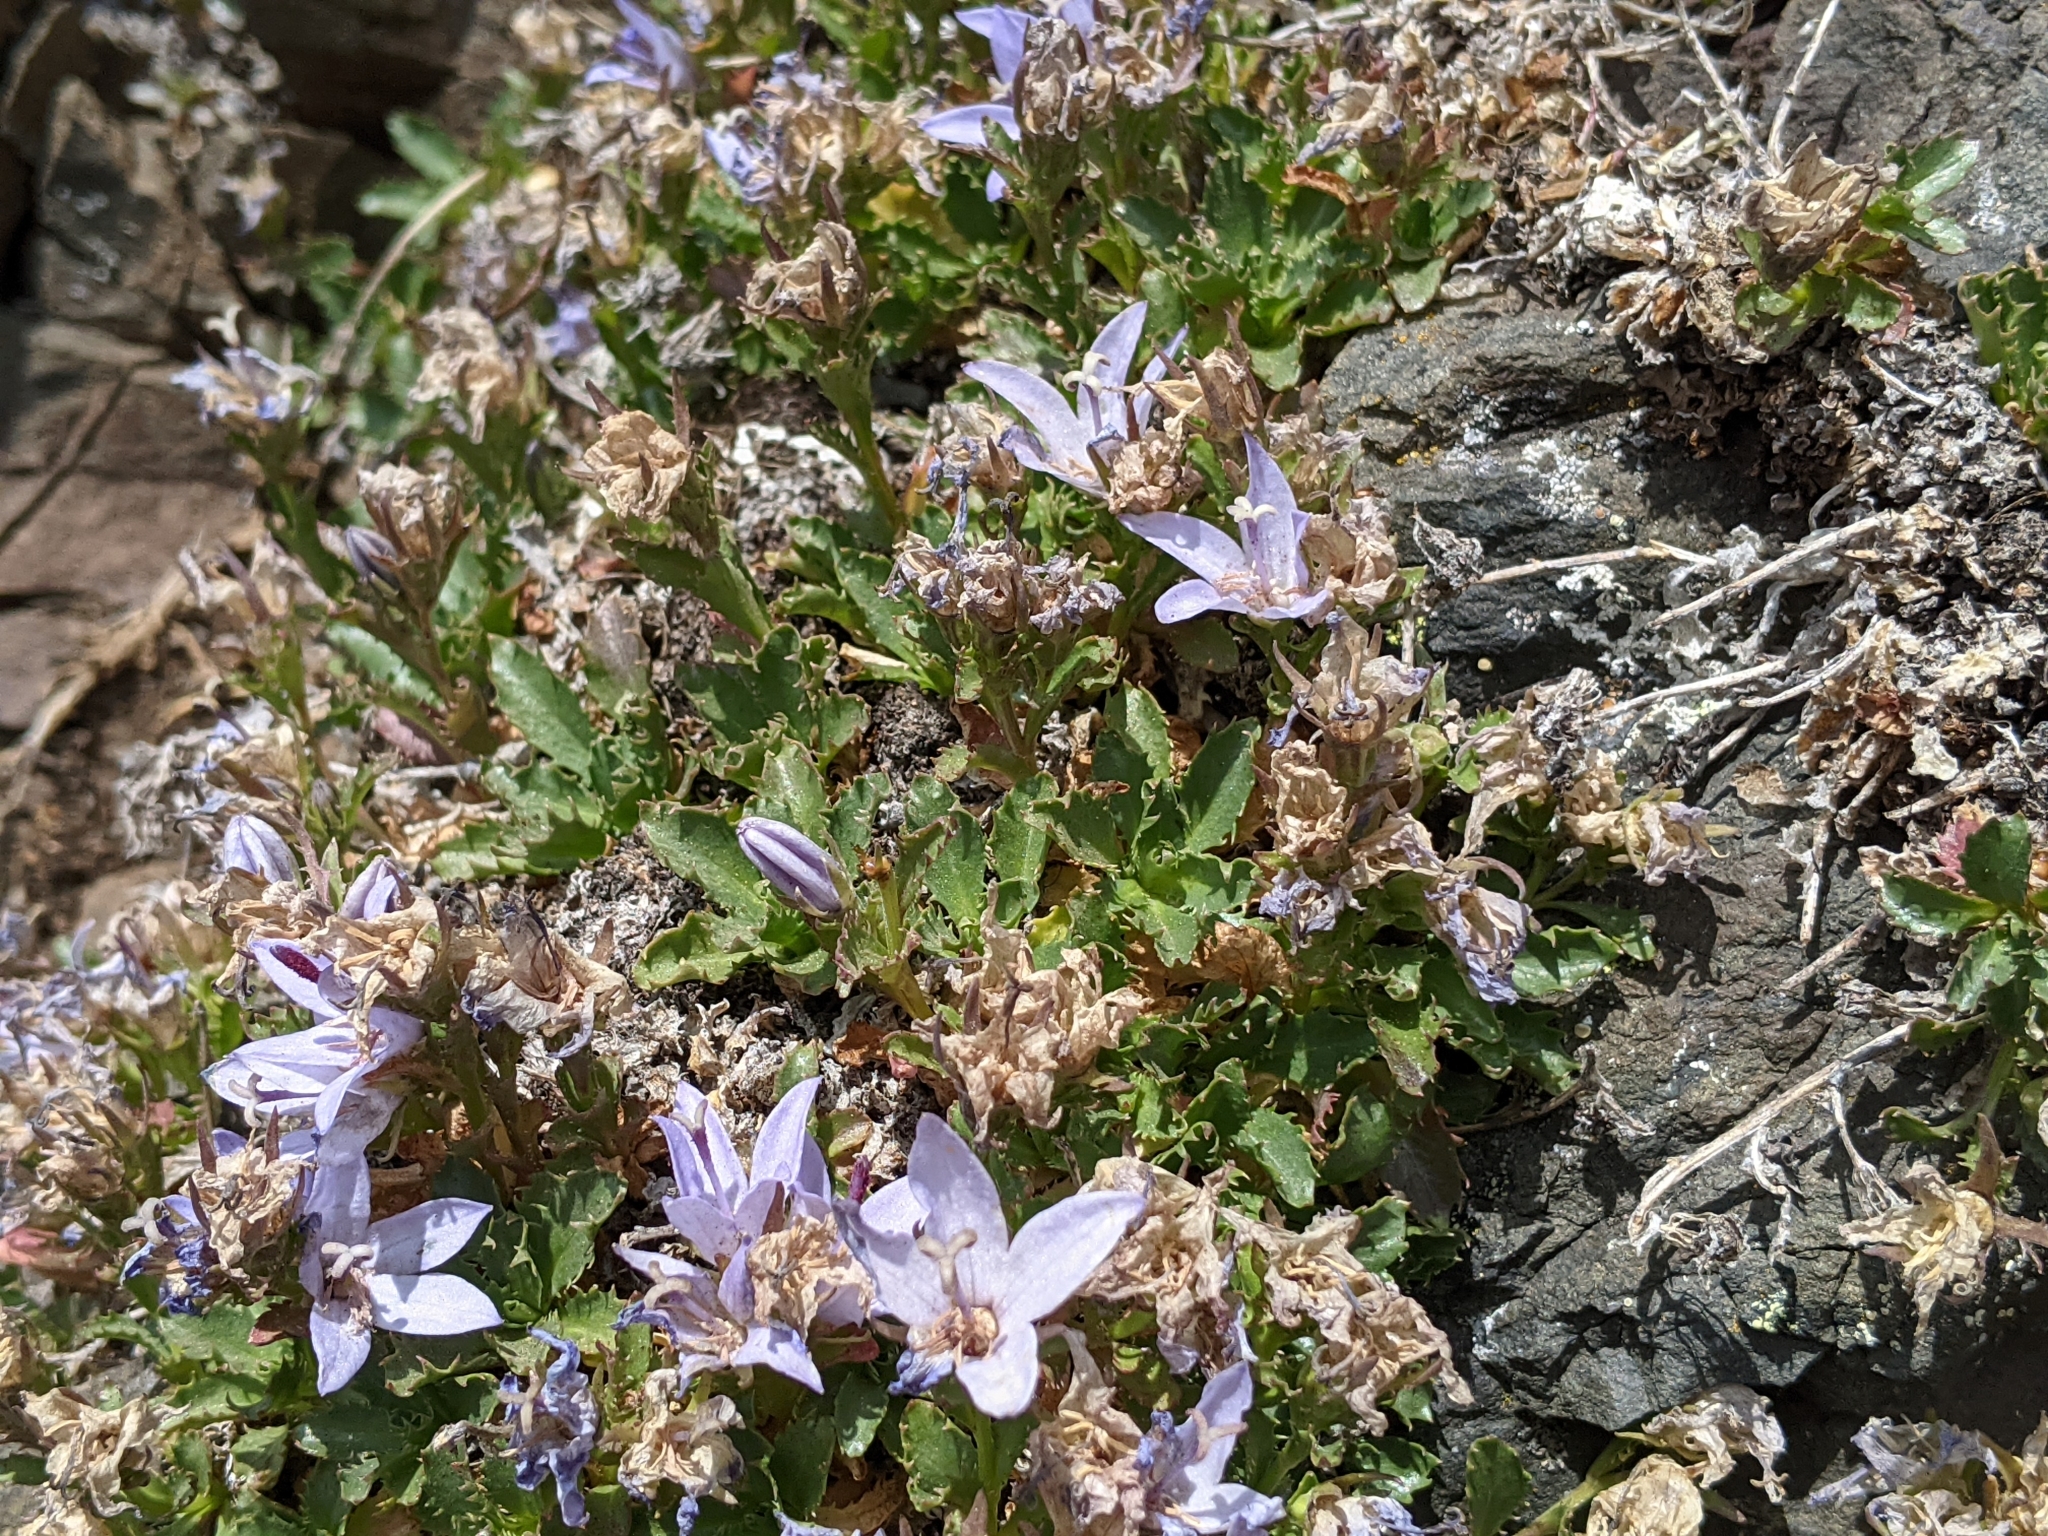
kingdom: Plantae
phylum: Tracheophyta
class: Magnoliopsida
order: Asterales
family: Campanulaceae
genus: Campanula
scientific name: Campanula piperi
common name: Olympic bellflower
